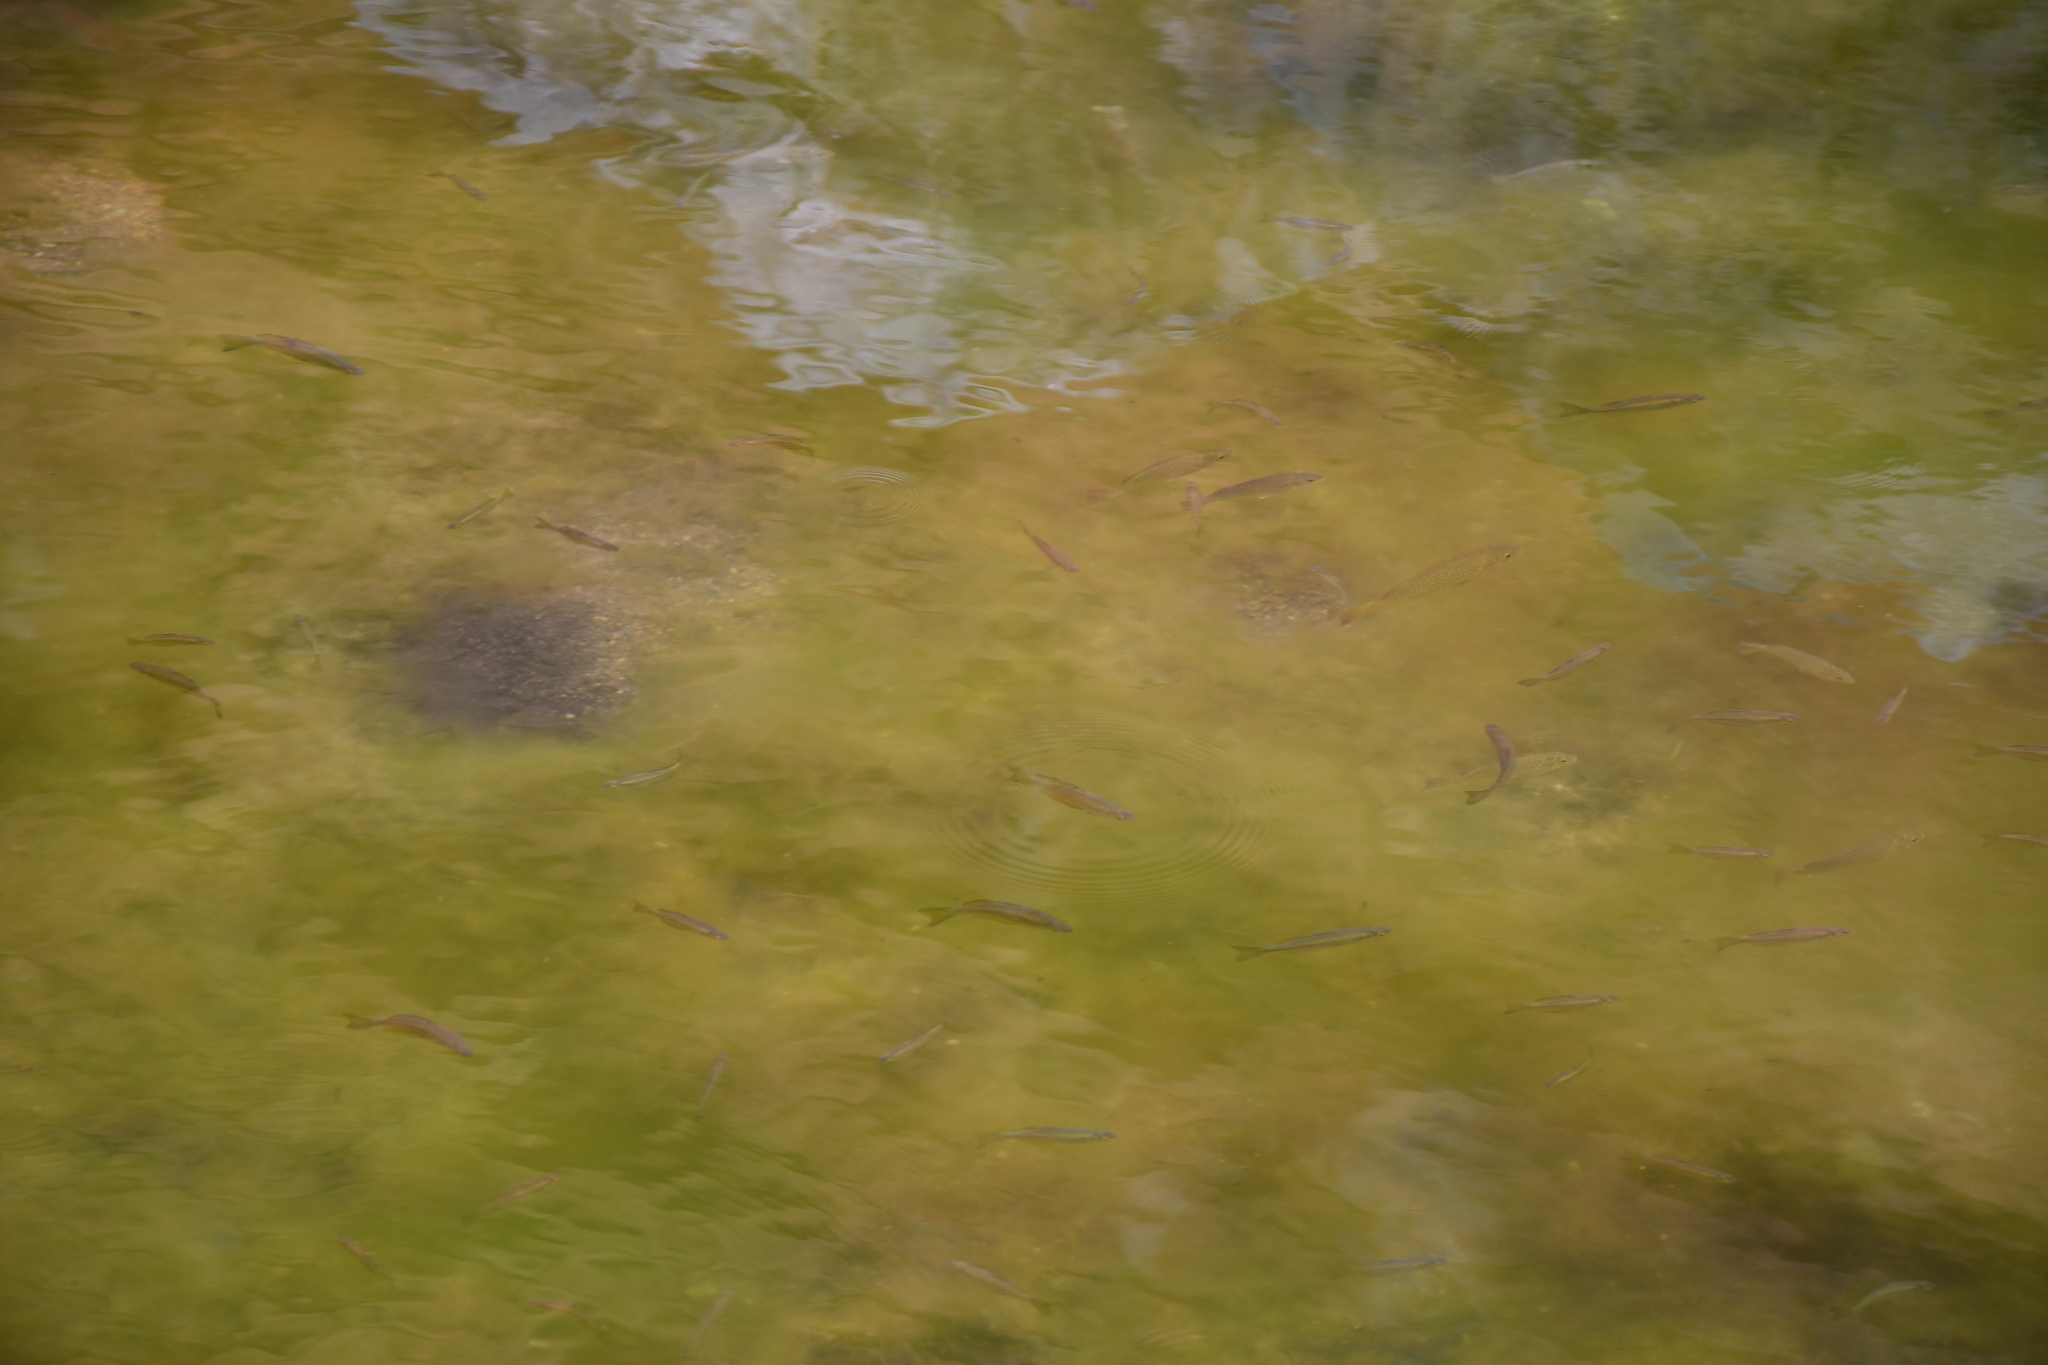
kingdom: Animalia
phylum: Chordata
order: Atheriniformes
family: Melanotaeniidae
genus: Melanotaenia
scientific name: Melanotaenia splendida
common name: Checkered rainbowfish
